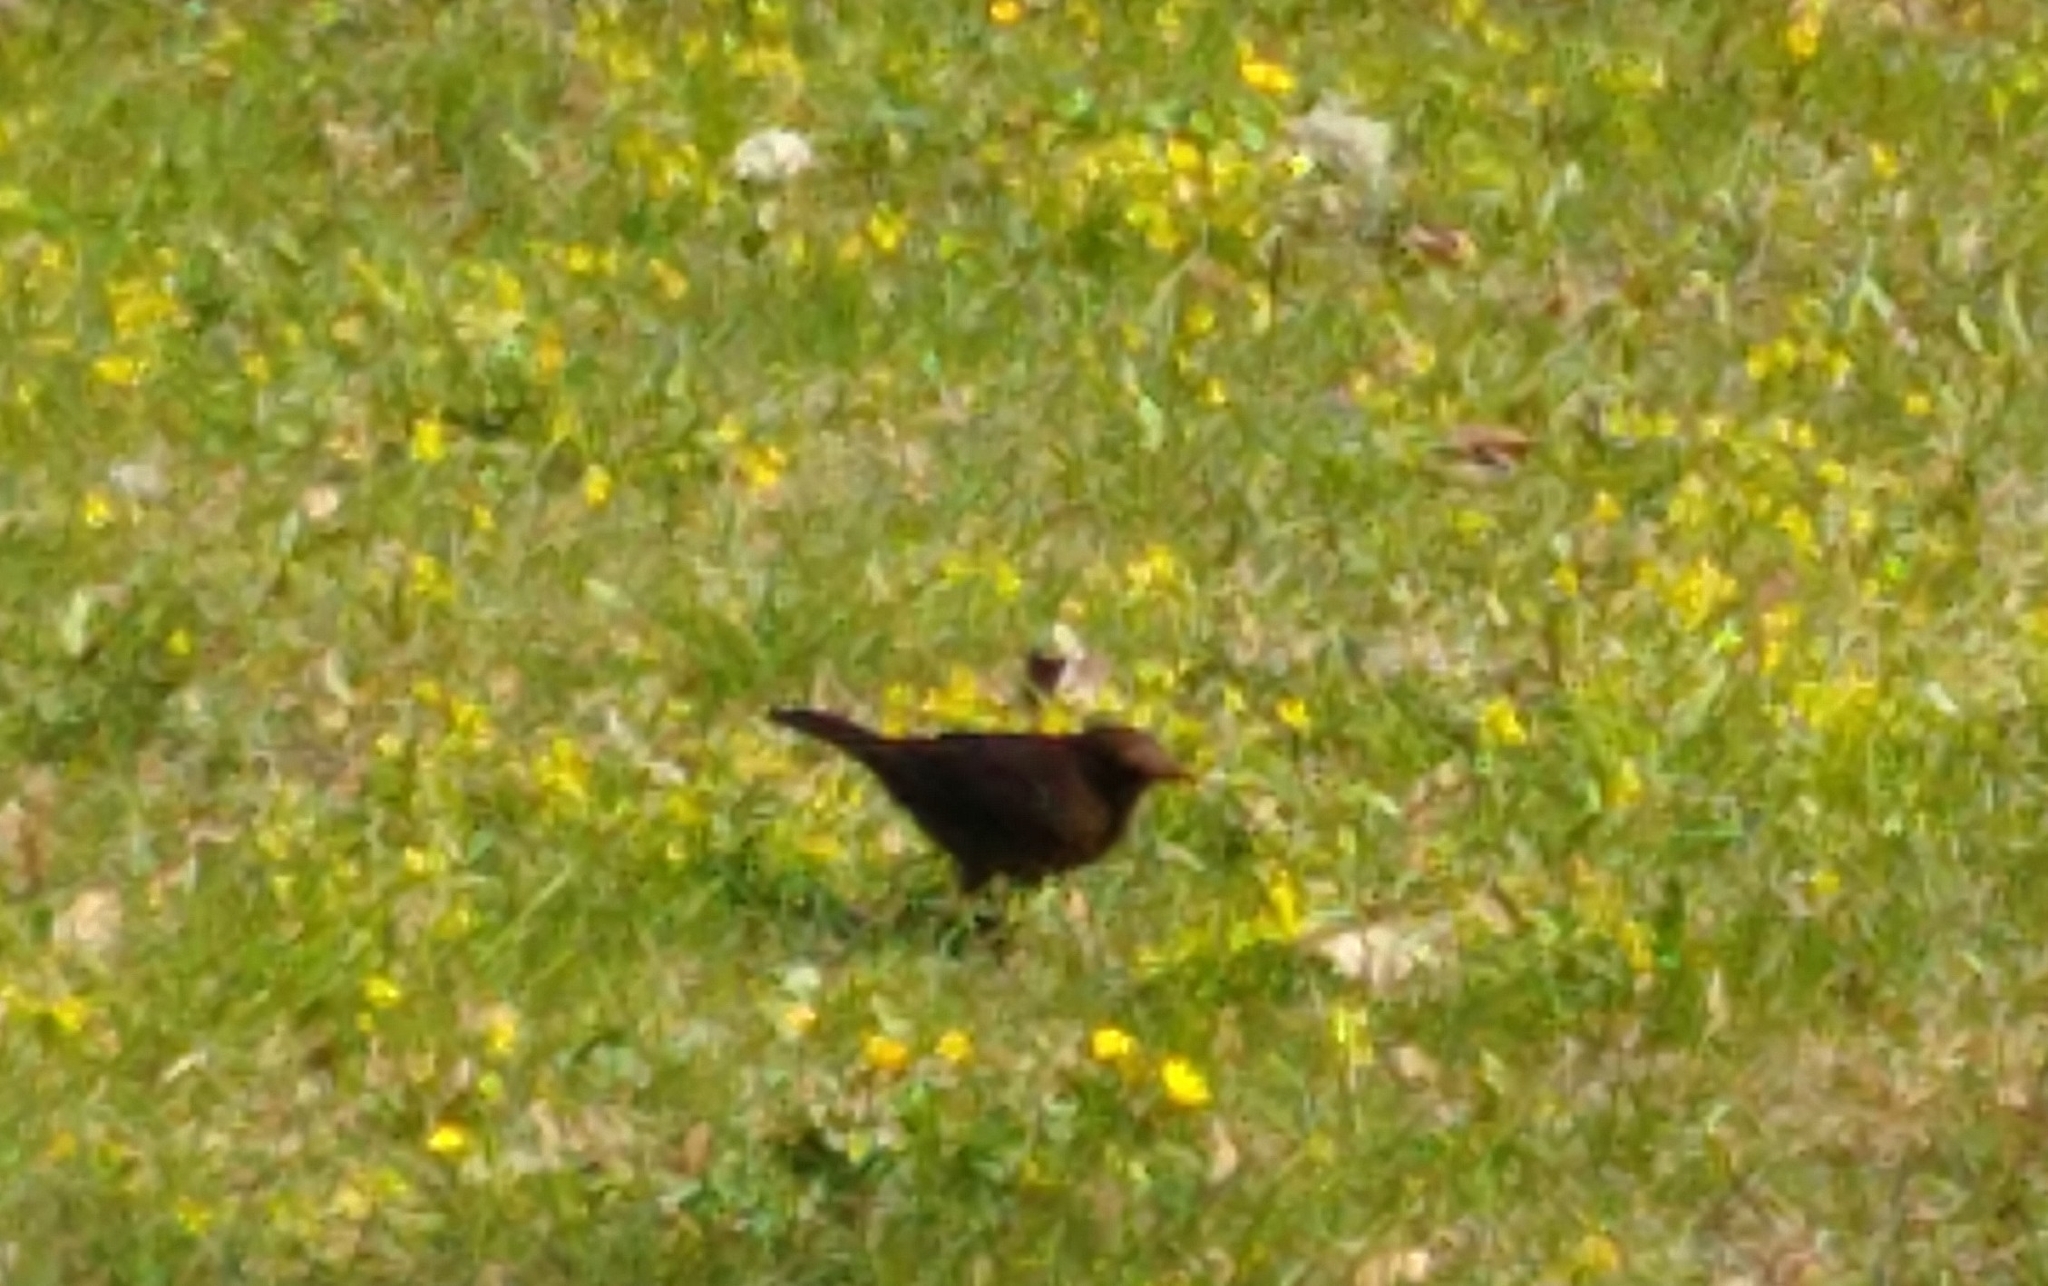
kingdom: Animalia
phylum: Chordata
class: Aves
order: Passeriformes
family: Turdidae
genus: Turdus
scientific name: Turdus merula
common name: Common blackbird
